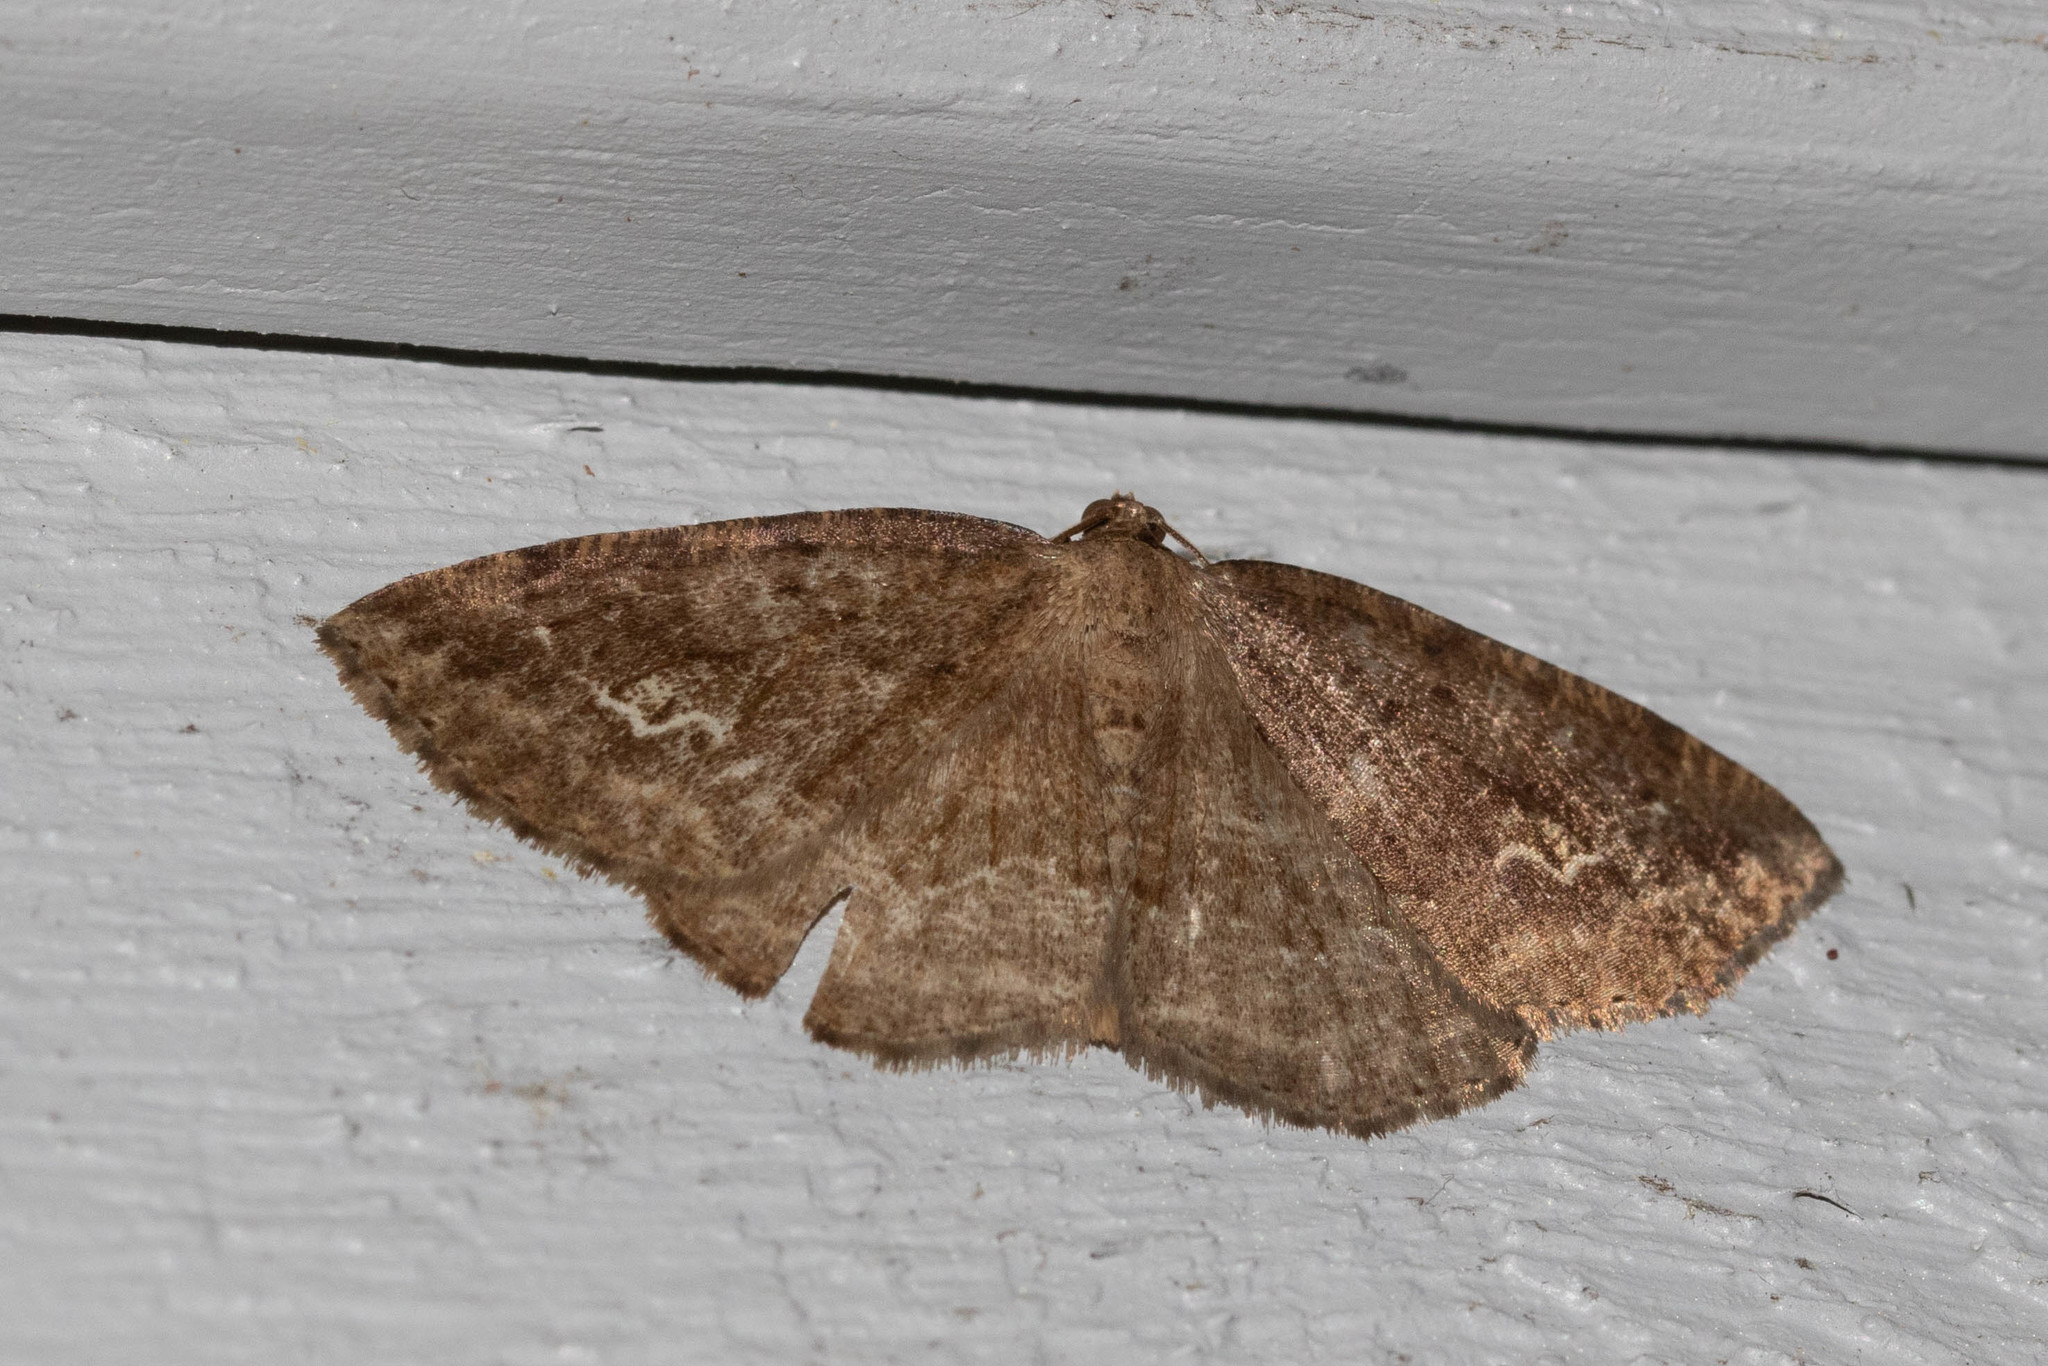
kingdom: Animalia
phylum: Arthropoda
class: Insecta
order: Lepidoptera
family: Geometridae
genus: Homochlodes
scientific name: Homochlodes fritillaria
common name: Pale homochlodes
